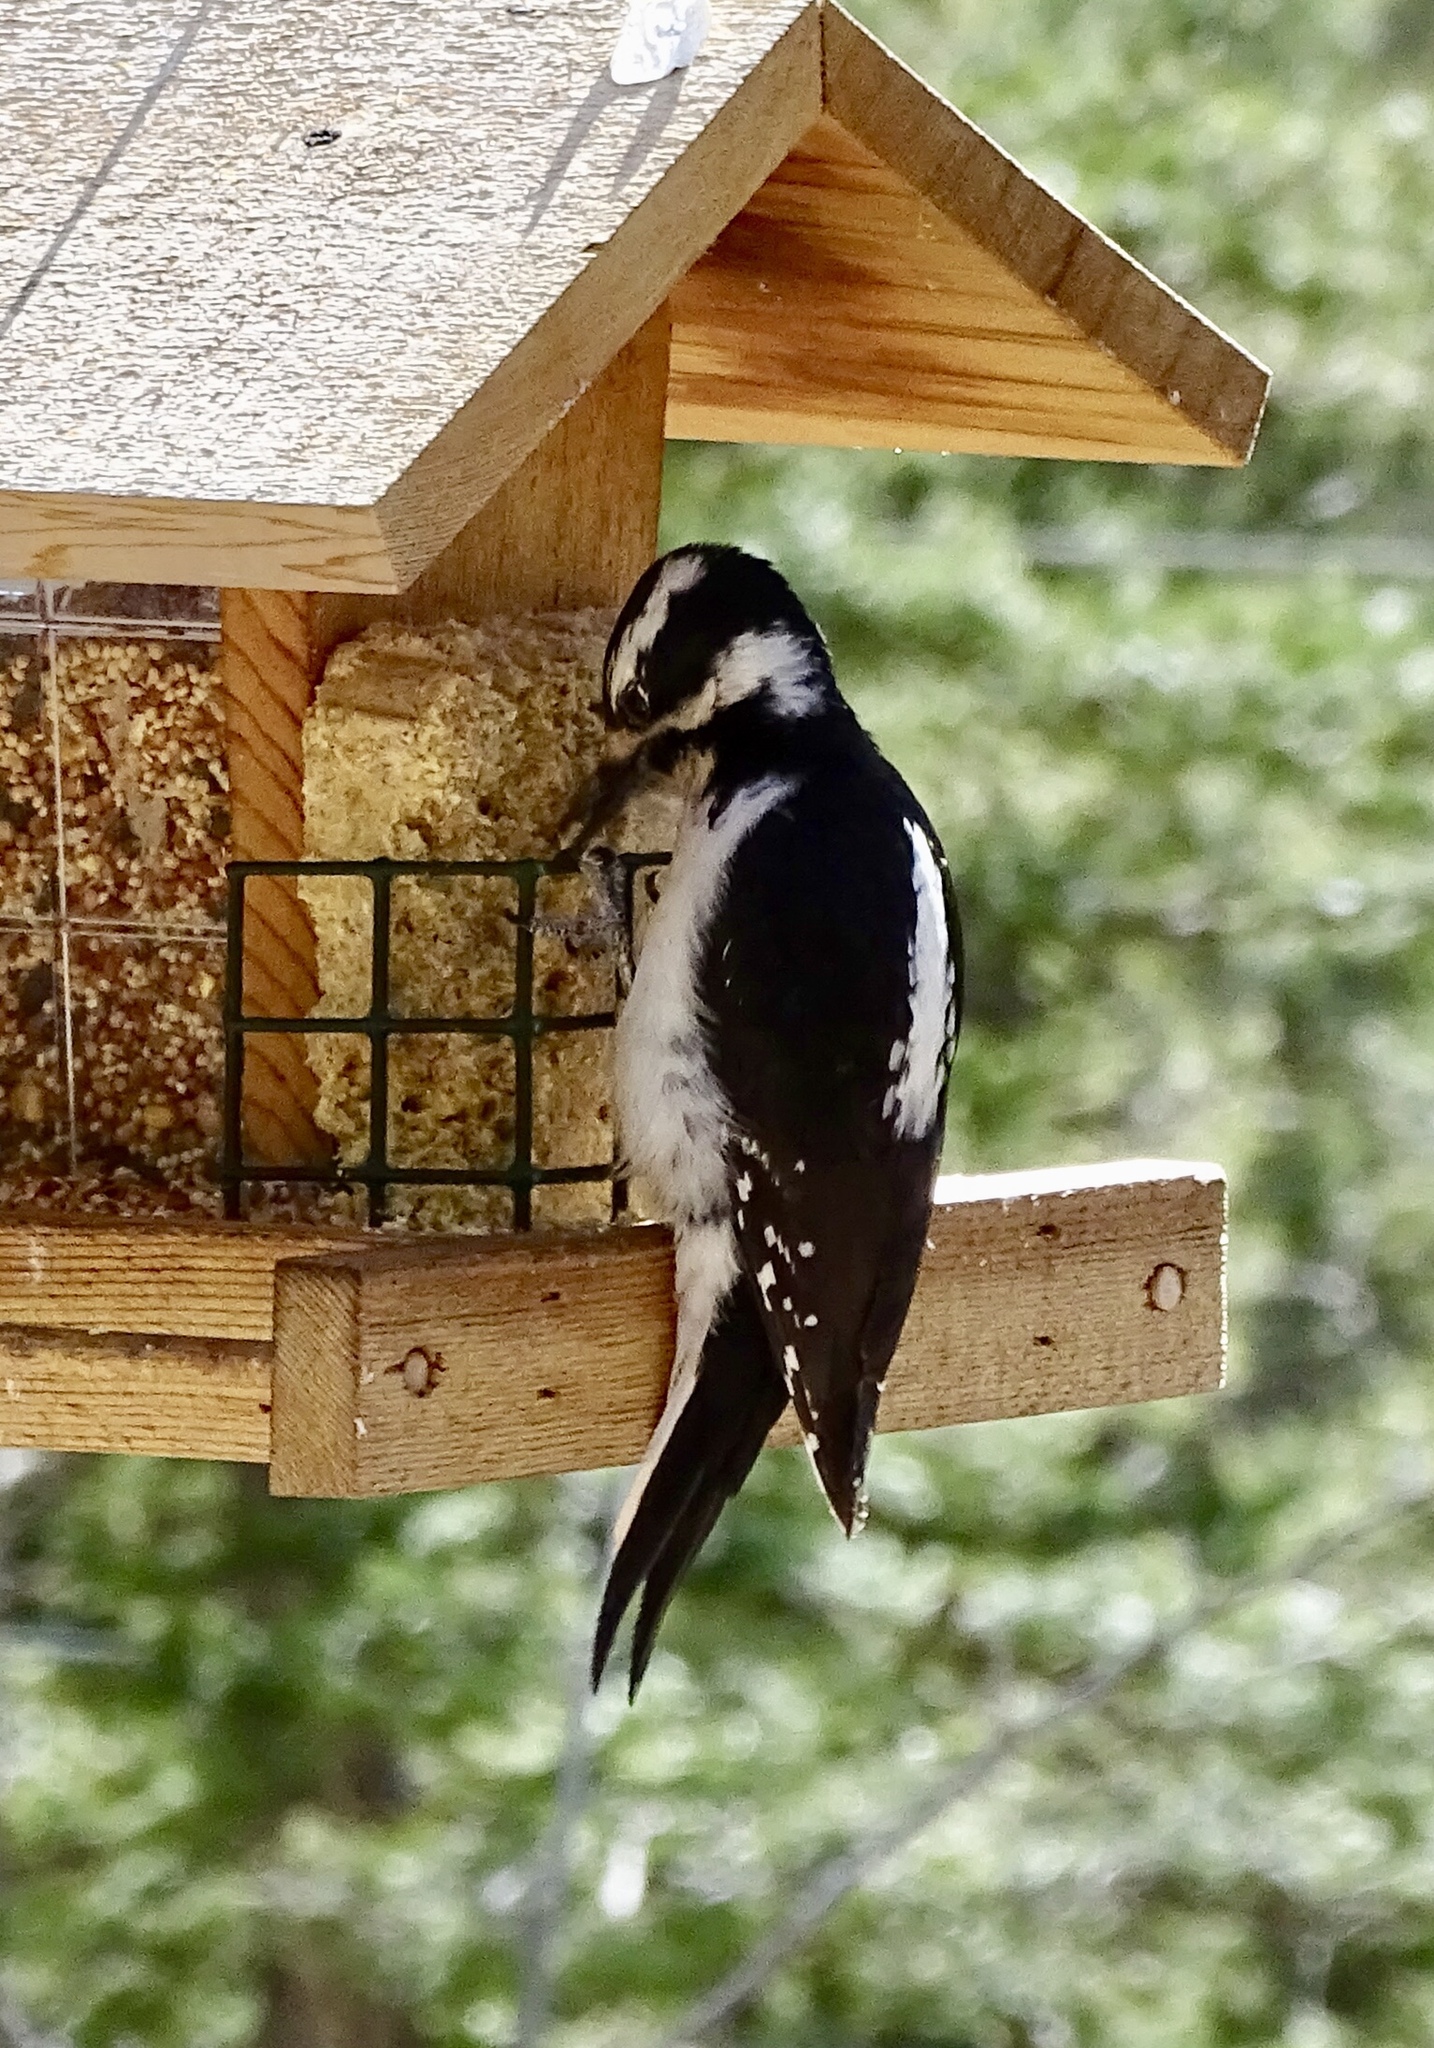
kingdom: Animalia
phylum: Chordata
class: Aves
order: Piciformes
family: Picidae
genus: Leuconotopicus
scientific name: Leuconotopicus villosus
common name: Hairy woodpecker
